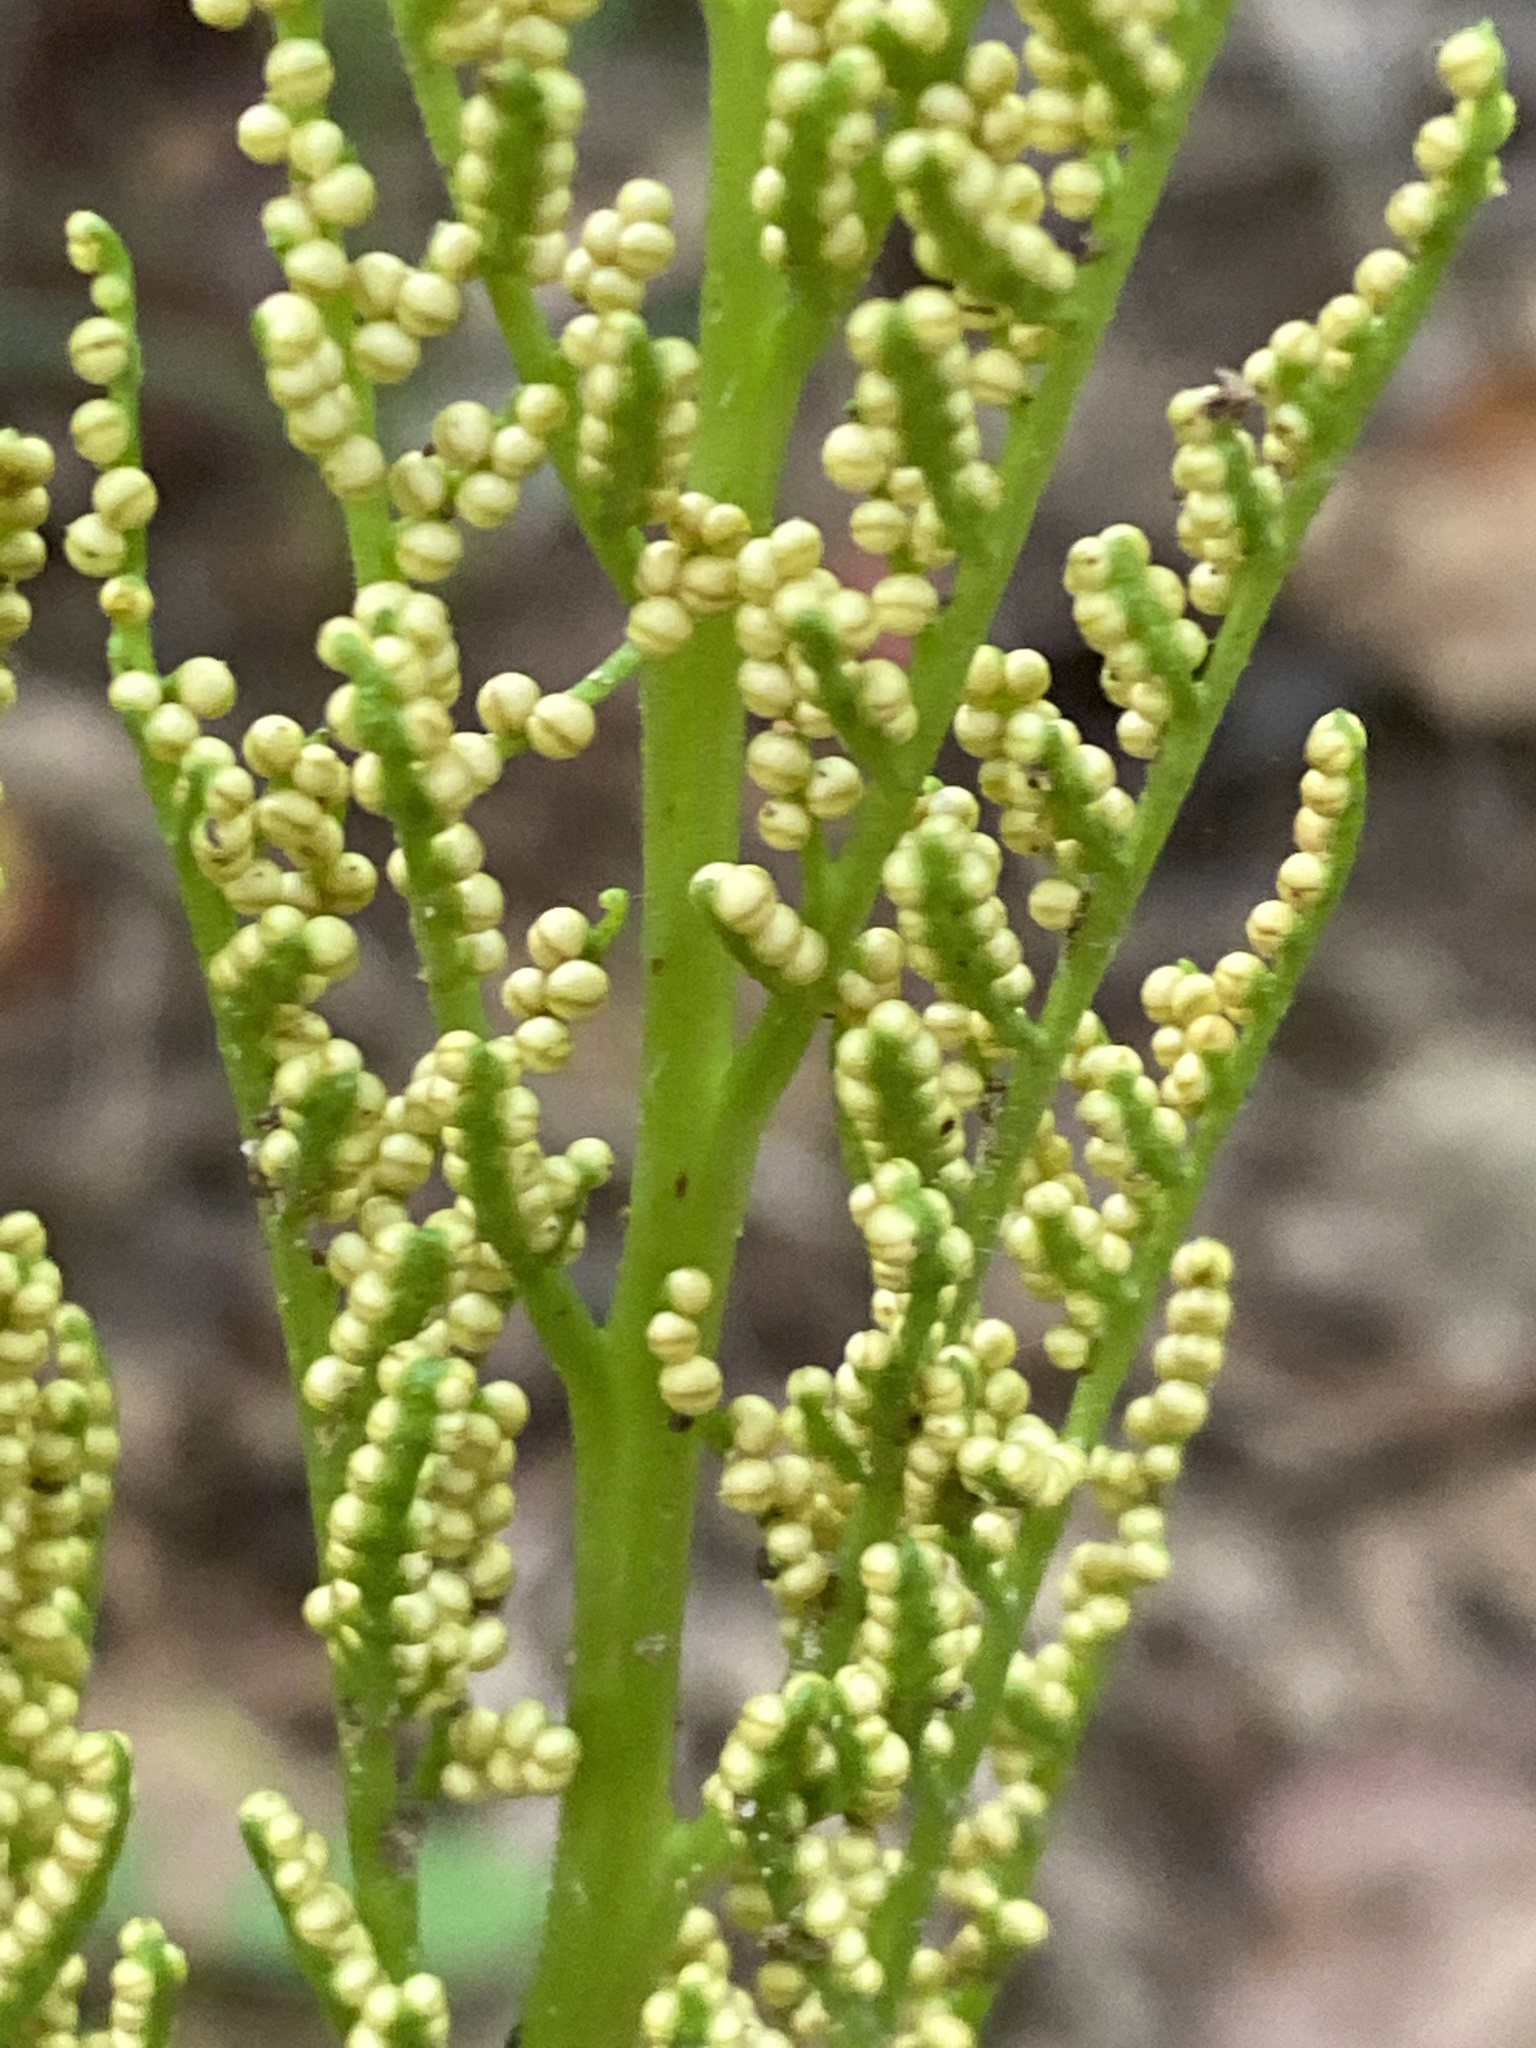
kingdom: Plantae
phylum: Tracheophyta
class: Polypodiopsida
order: Ophioglossales
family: Ophioglossaceae
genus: Sceptridium
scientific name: Sceptridium biternatum
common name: Sparse-lobed grapefern
